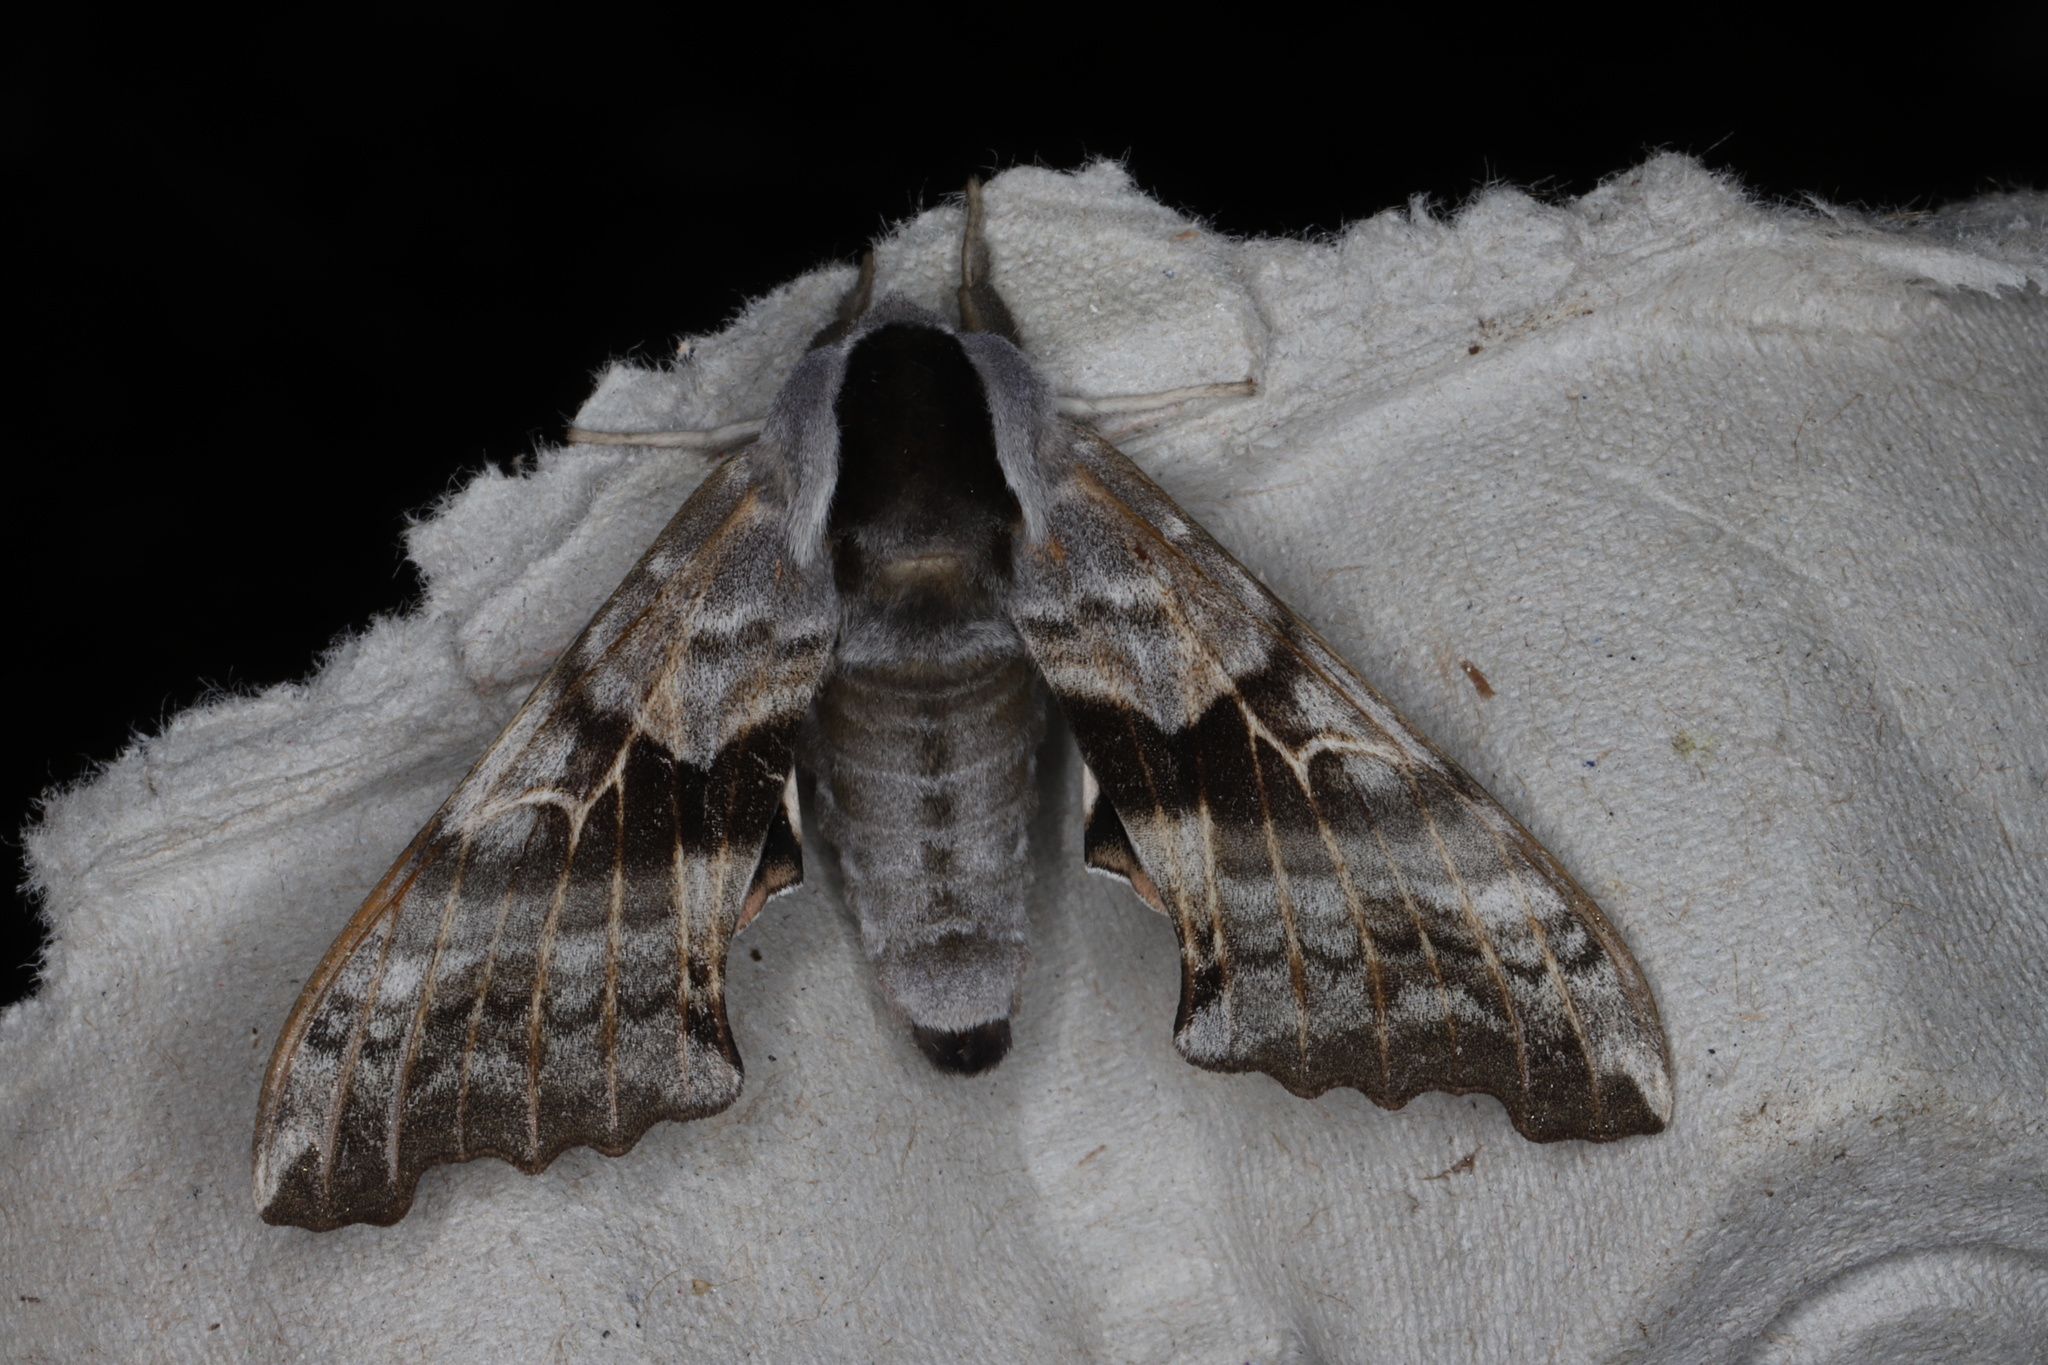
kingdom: Animalia
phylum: Arthropoda
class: Insecta
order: Lepidoptera
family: Sphingidae
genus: Smerinthus
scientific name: Smerinthus cerisyi
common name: Cerisy's sphinx moth
